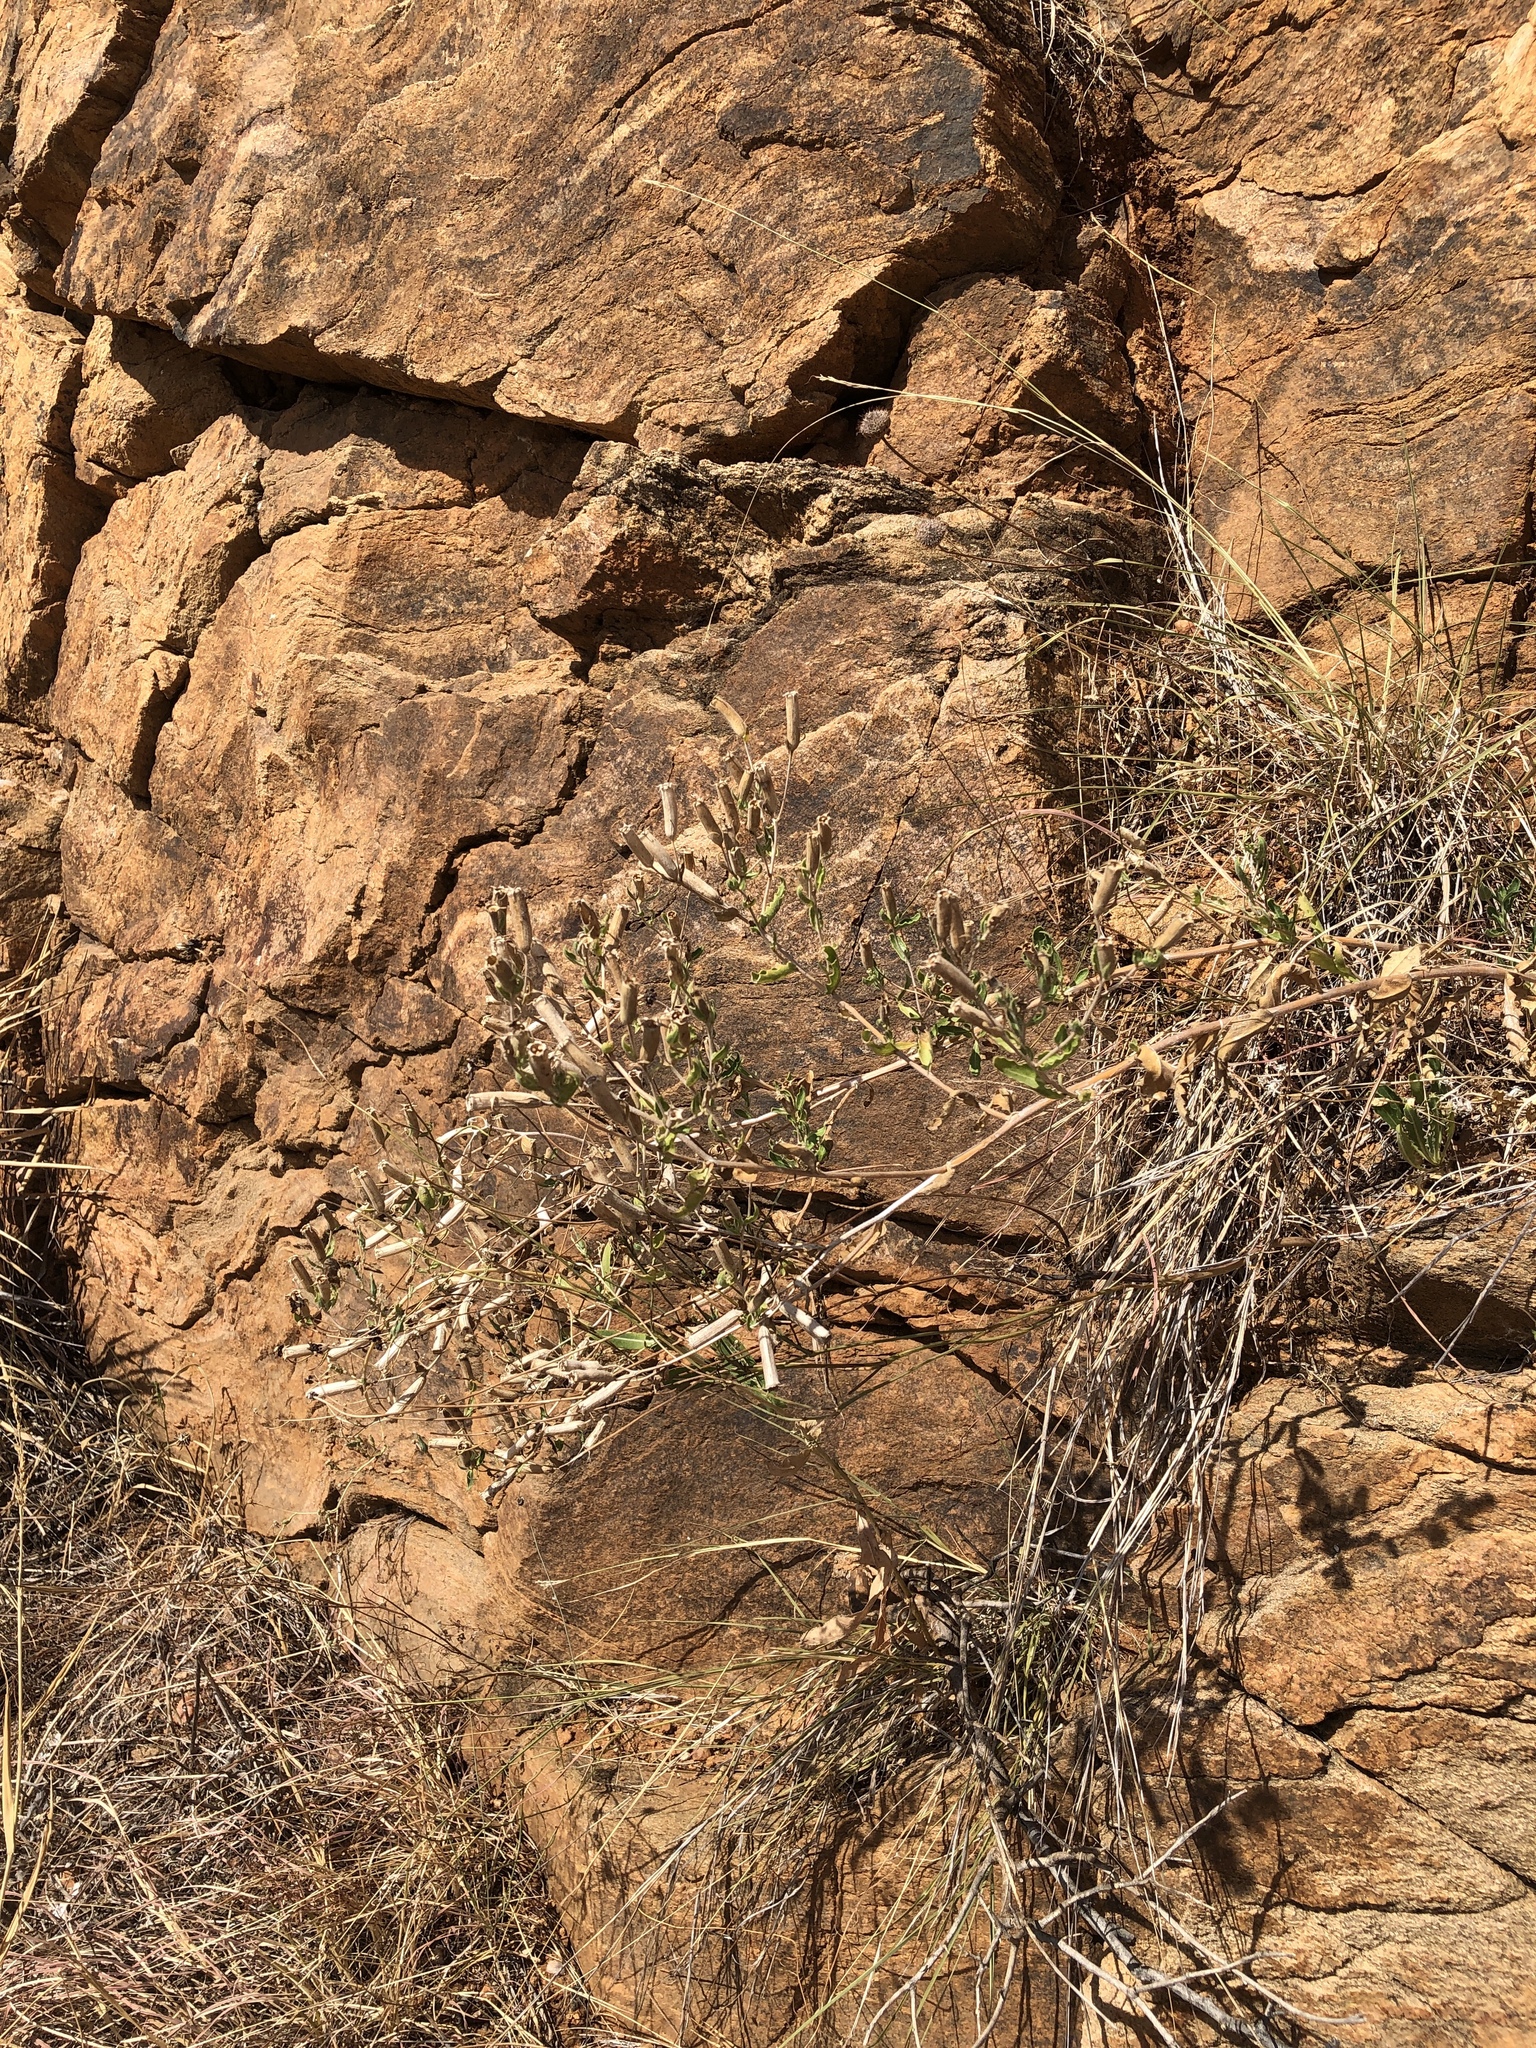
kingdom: Plantae
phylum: Tracheophyta
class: Magnoliopsida
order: Cornales
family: Loasaceae
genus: Mentzelia
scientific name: Mentzelia oligosperma
